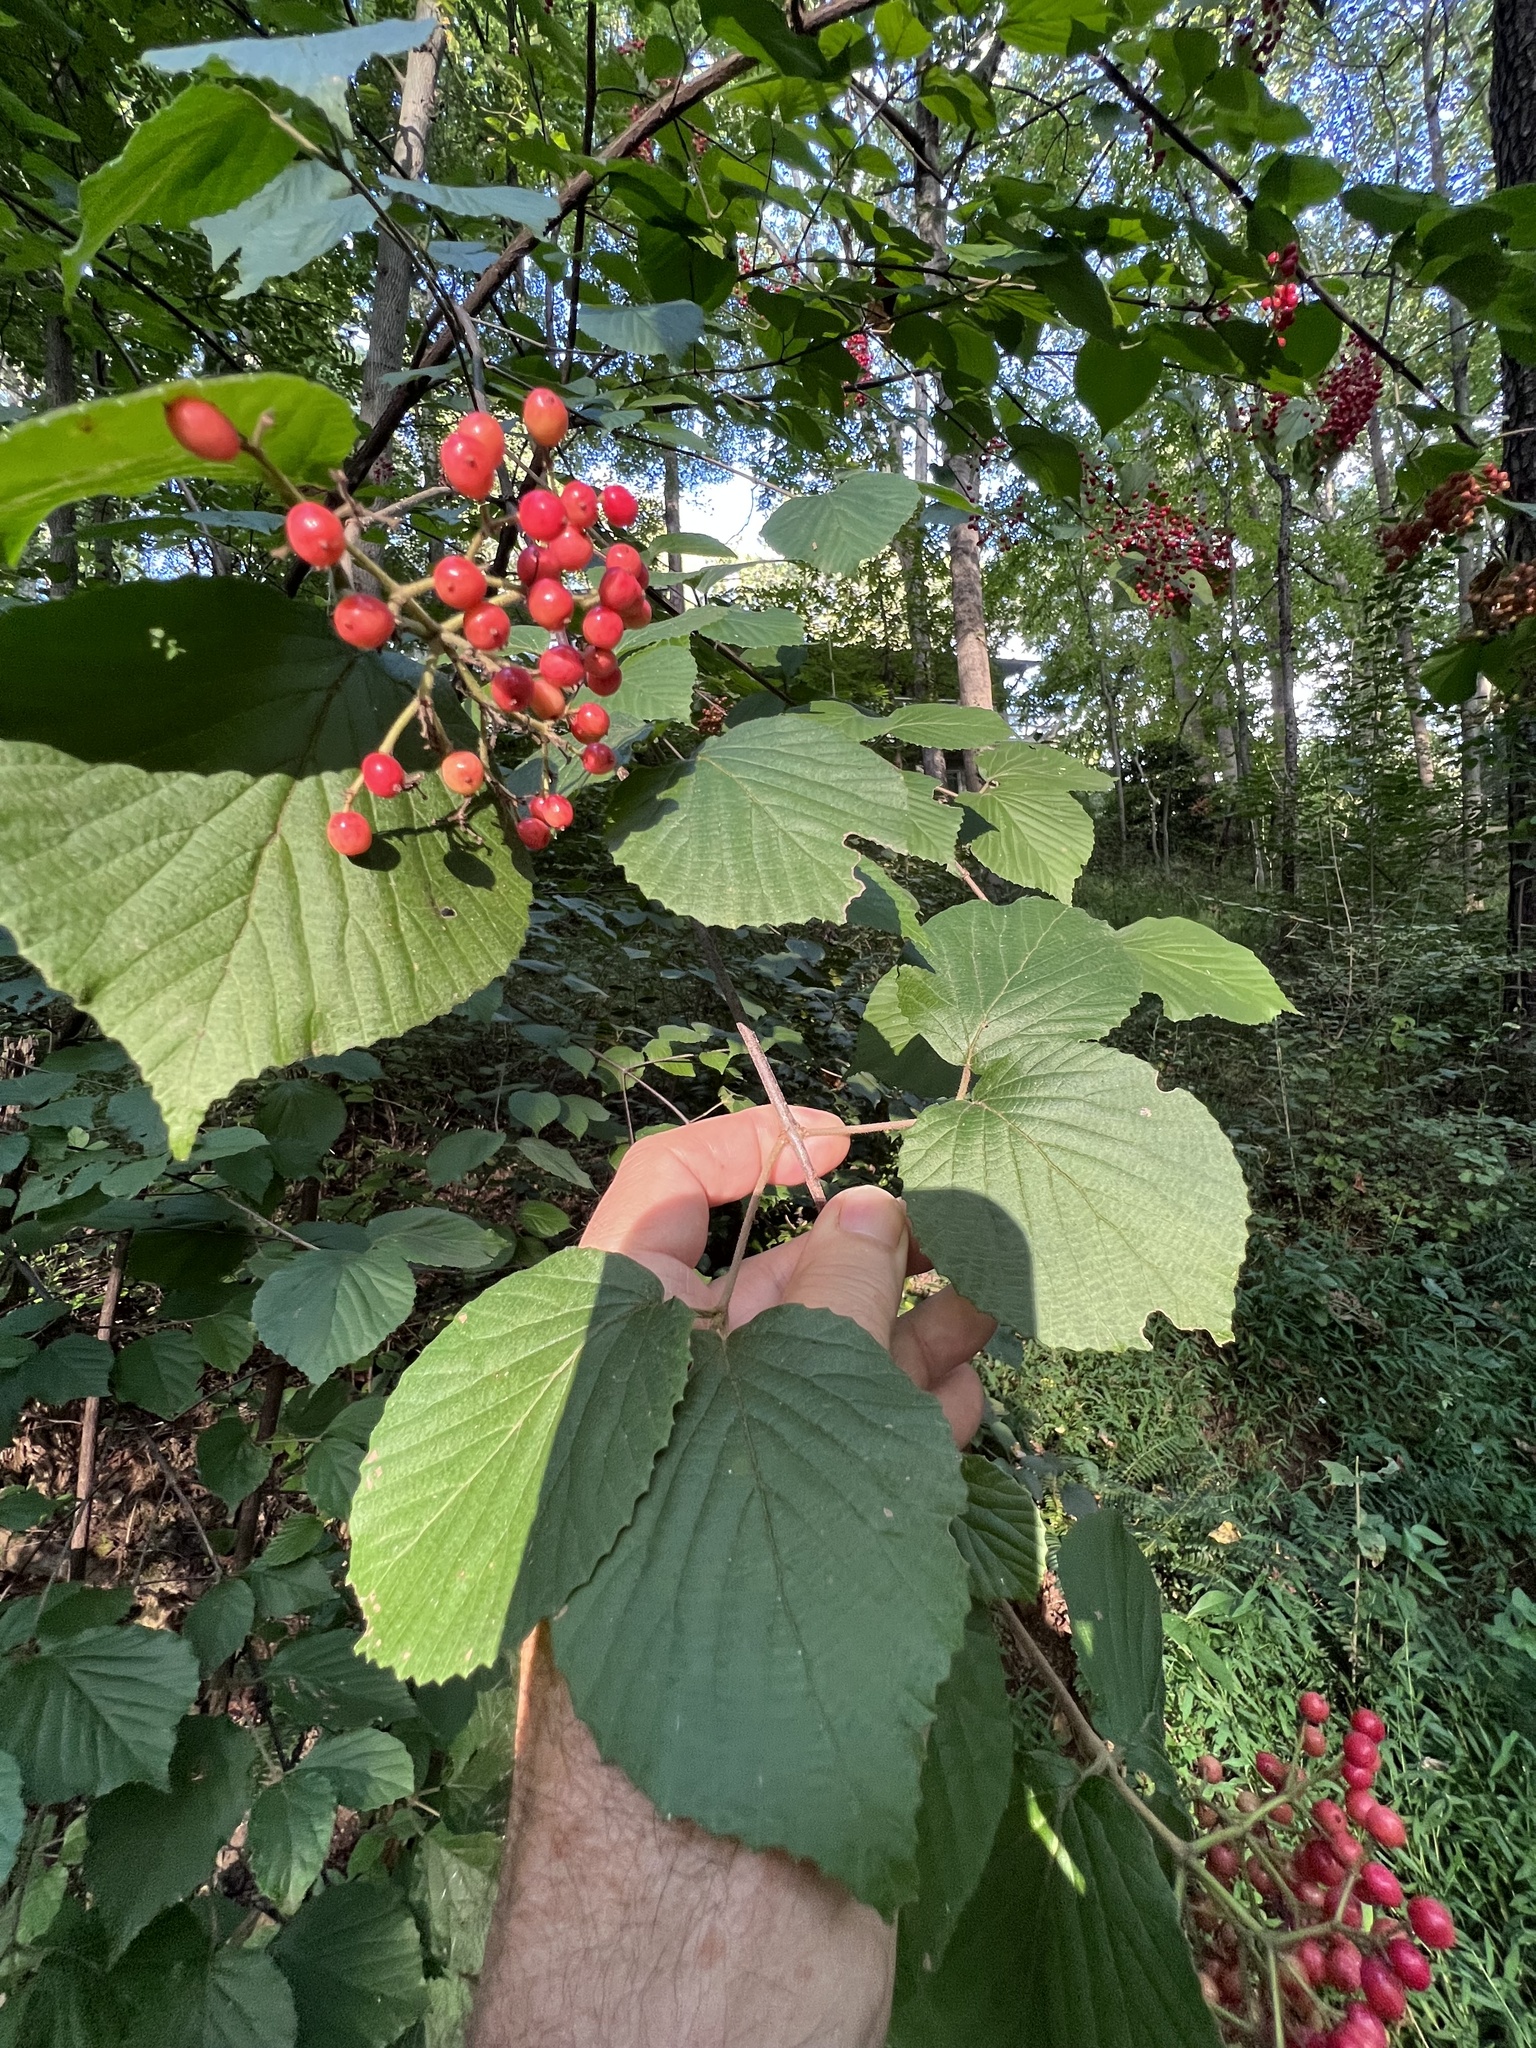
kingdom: Plantae
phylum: Tracheophyta
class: Magnoliopsida
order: Dipsacales
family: Viburnaceae
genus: Viburnum
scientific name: Viburnum dilatatum
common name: Linden arrowwood
